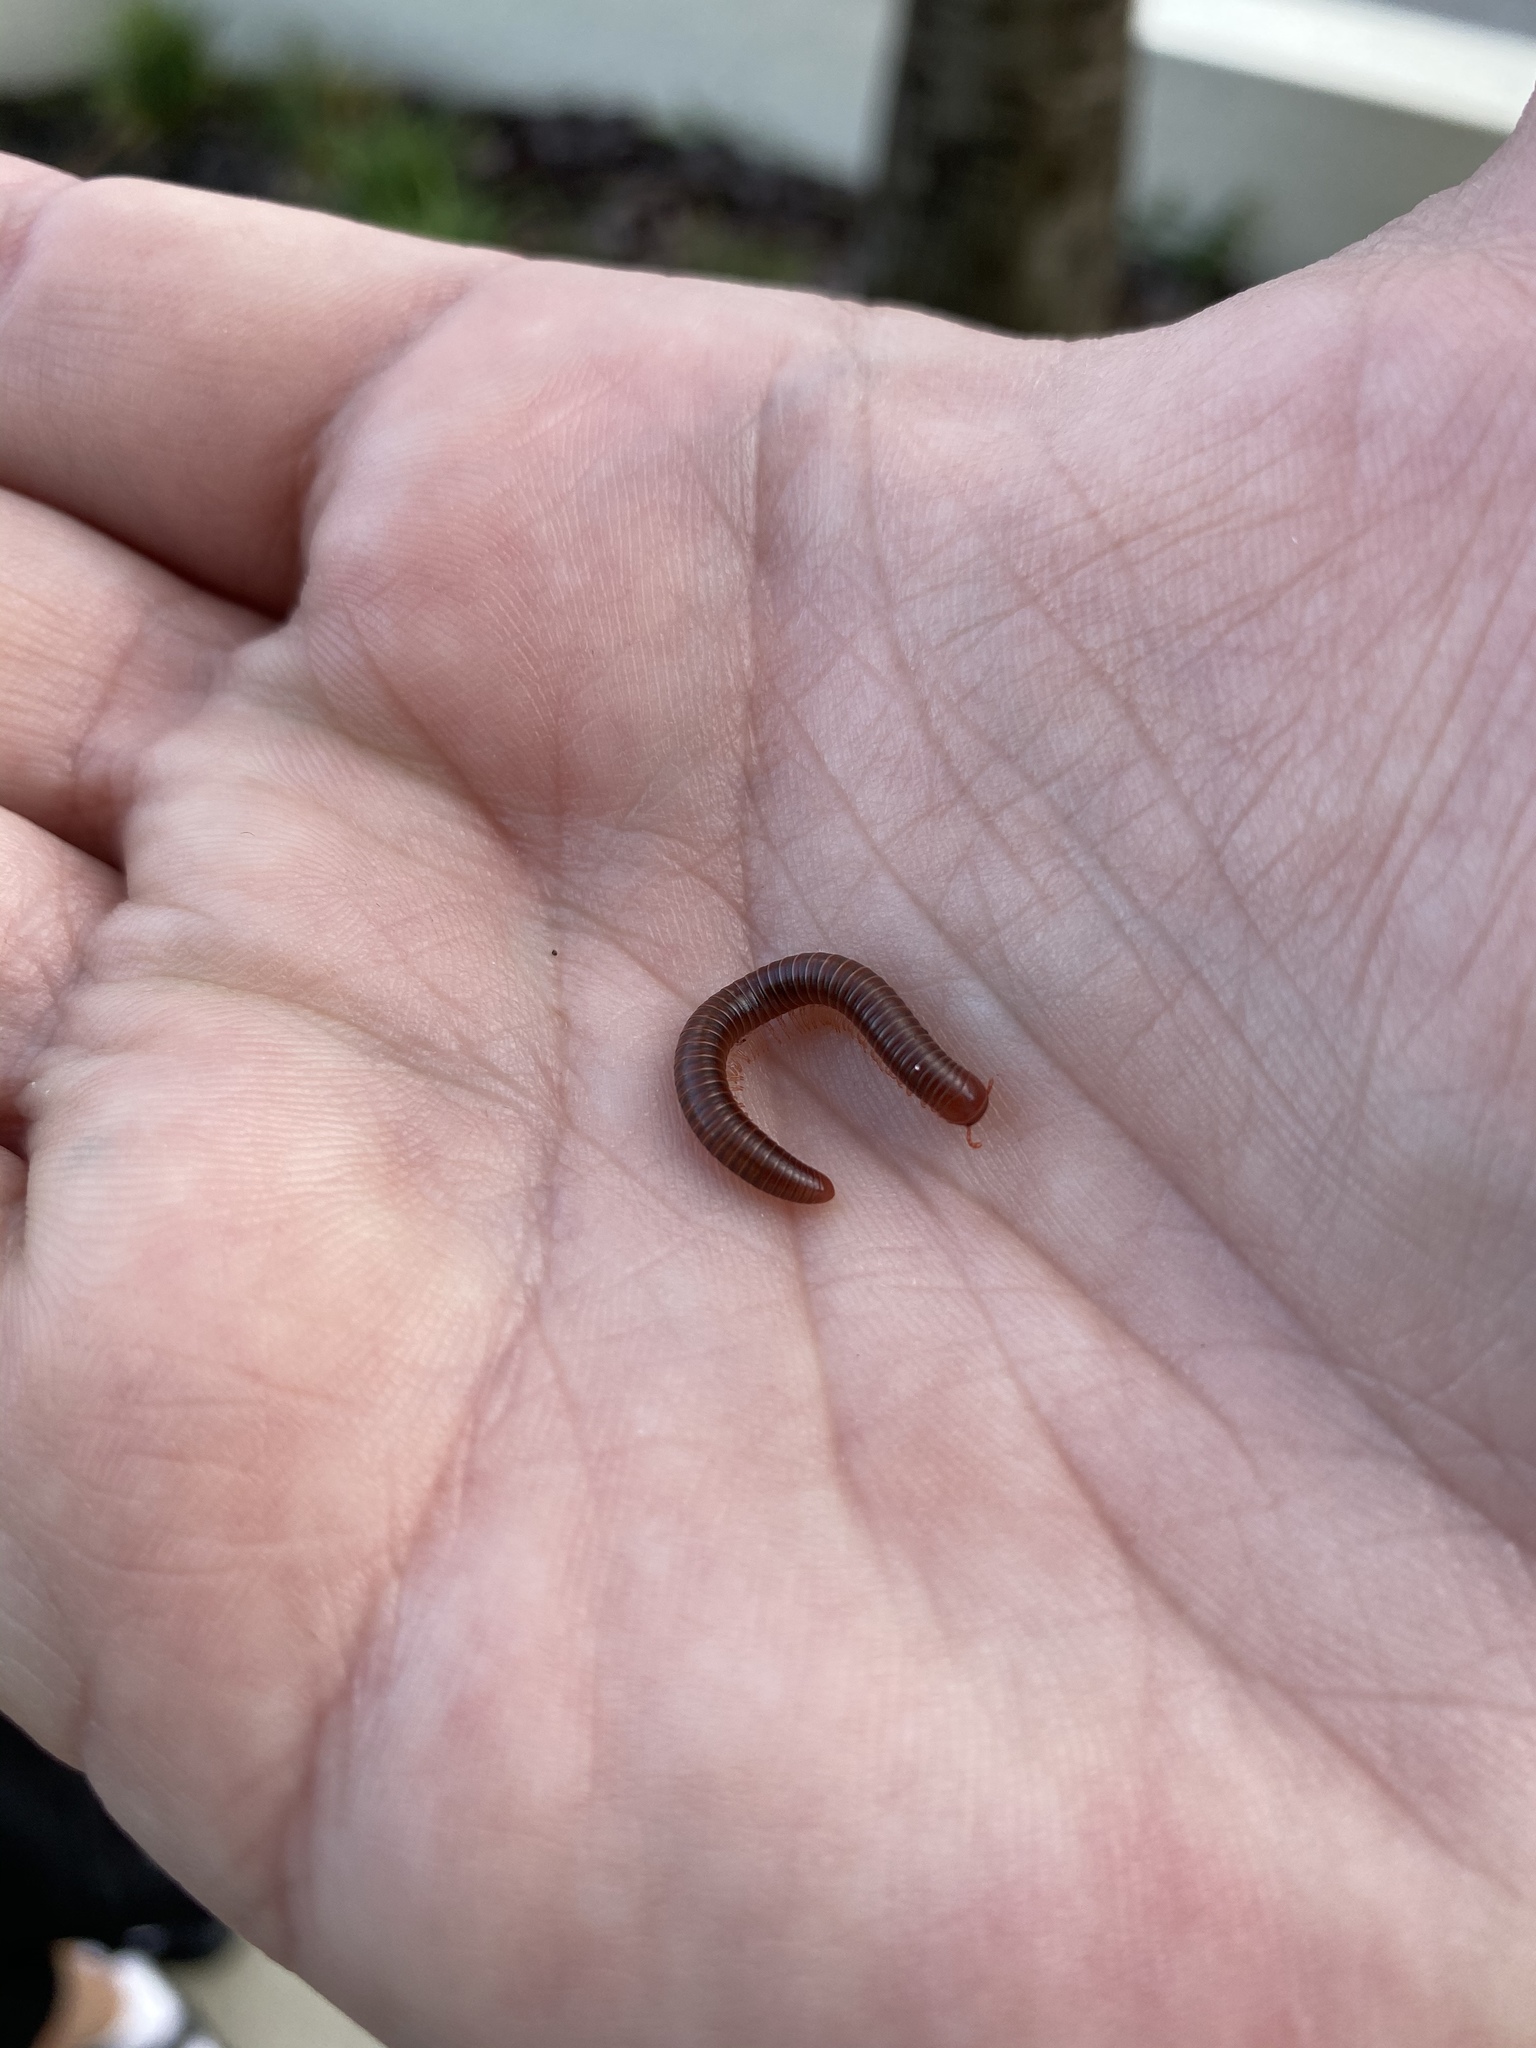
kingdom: Animalia
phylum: Arthropoda
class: Diplopoda
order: Spirobolida
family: Pachybolidae
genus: Trigoniulus
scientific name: Trigoniulus corallinus
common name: Millipede
